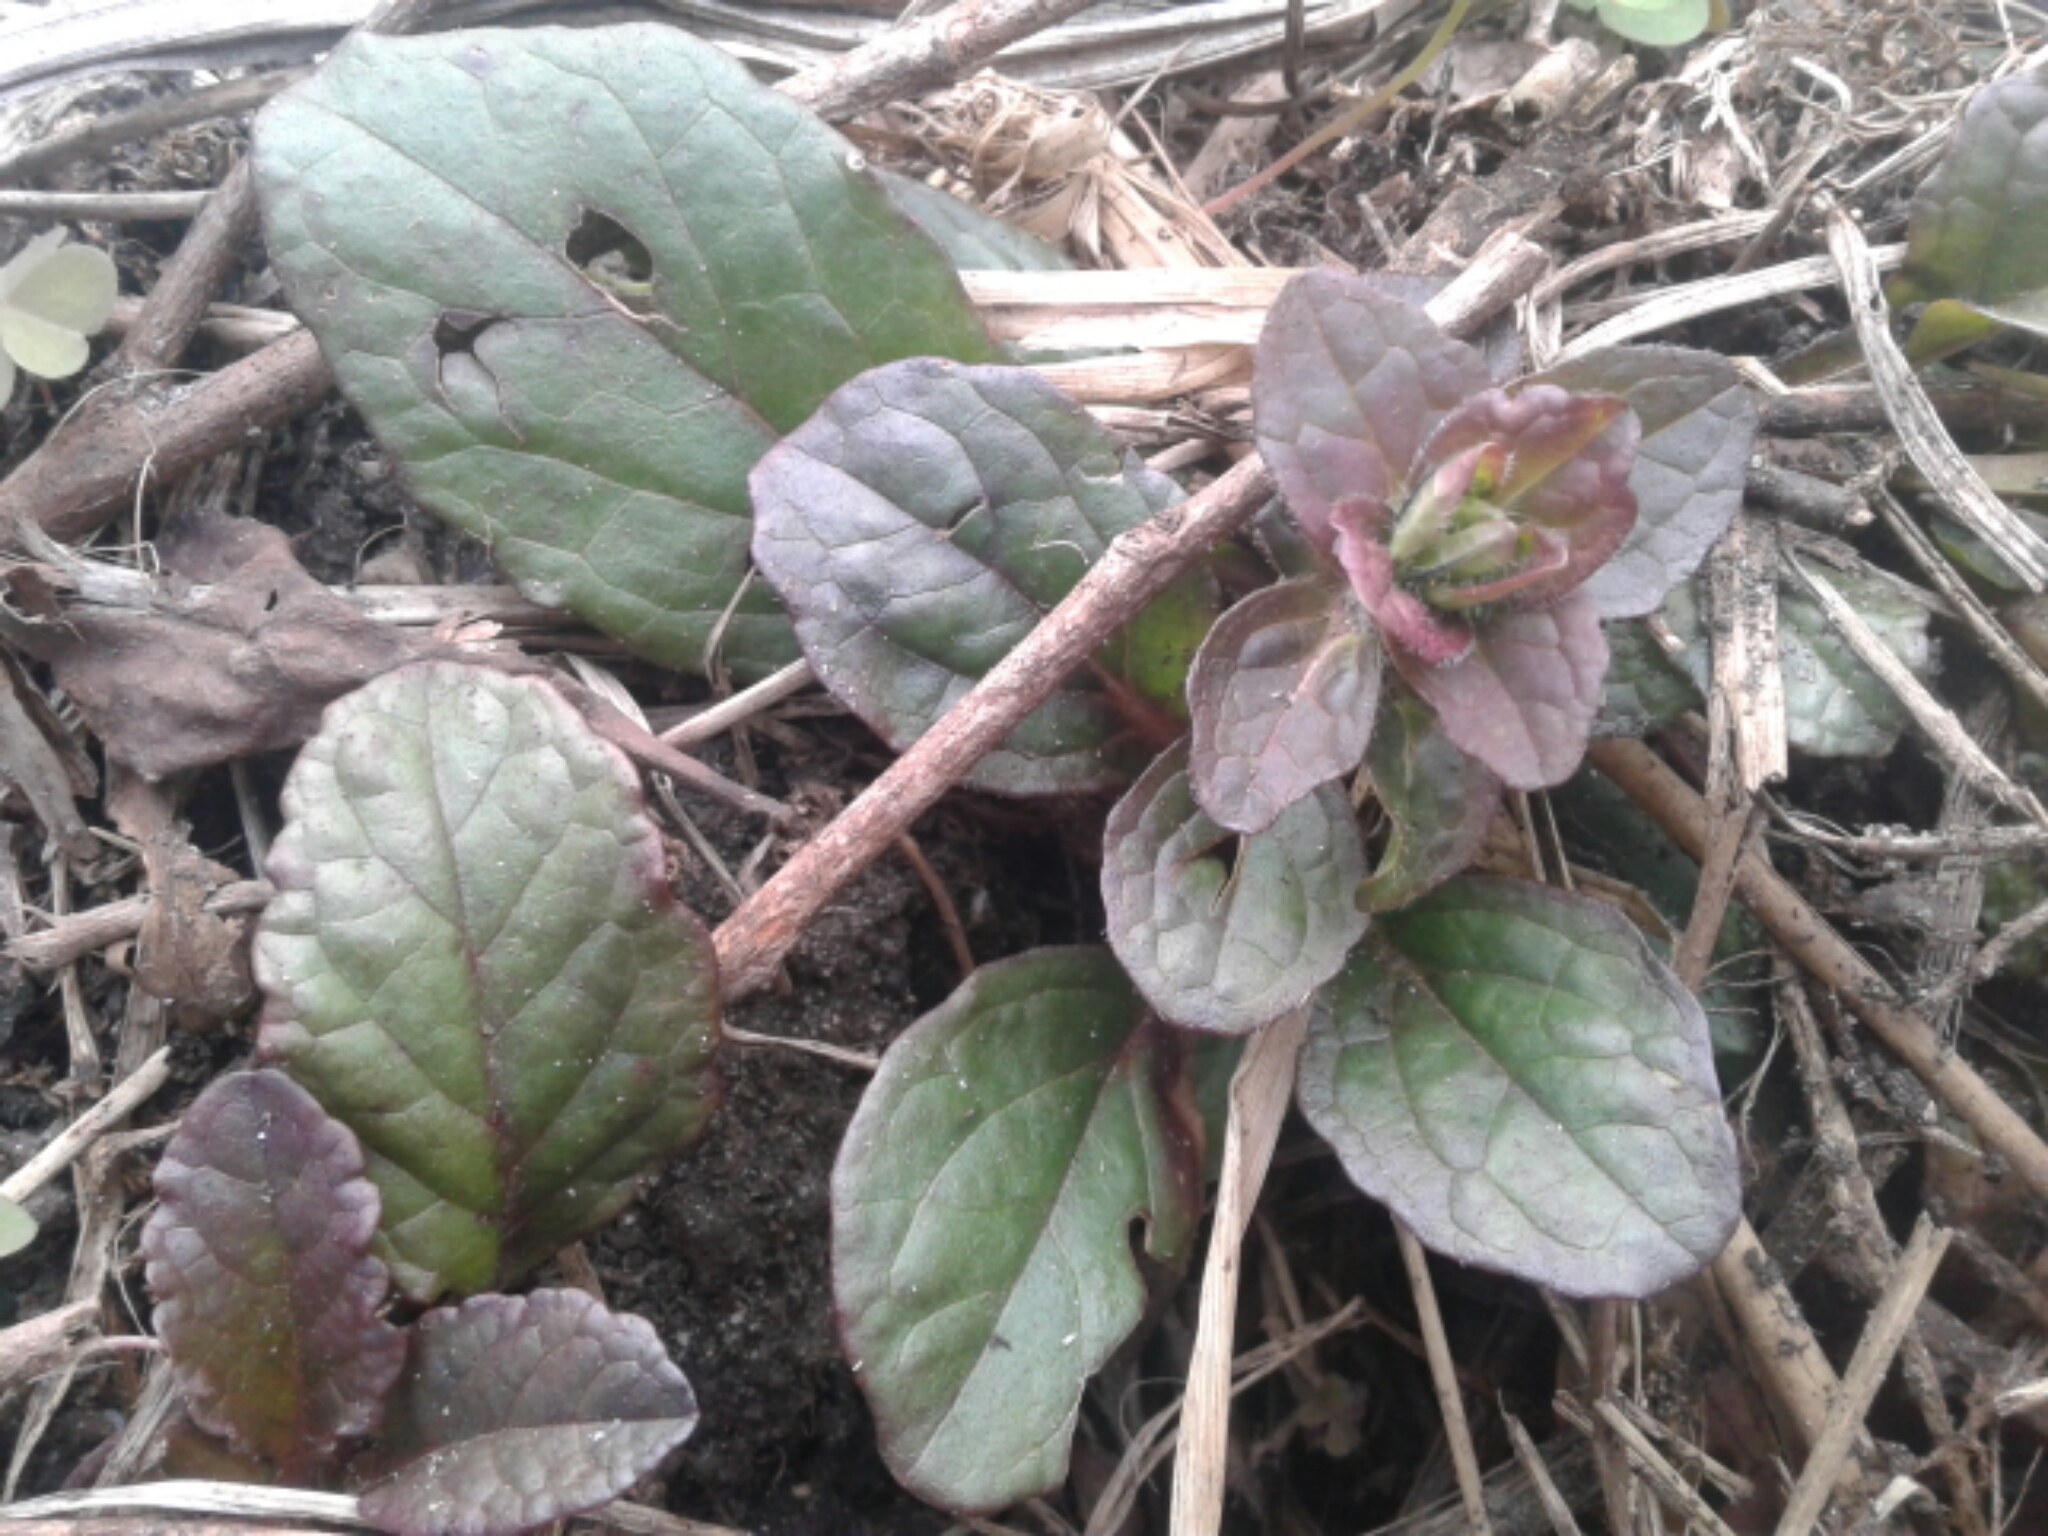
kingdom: Plantae
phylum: Tracheophyta
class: Magnoliopsida
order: Lamiales
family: Lamiaceae
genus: Ajuga
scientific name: Ajuga reptans
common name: Bugle
